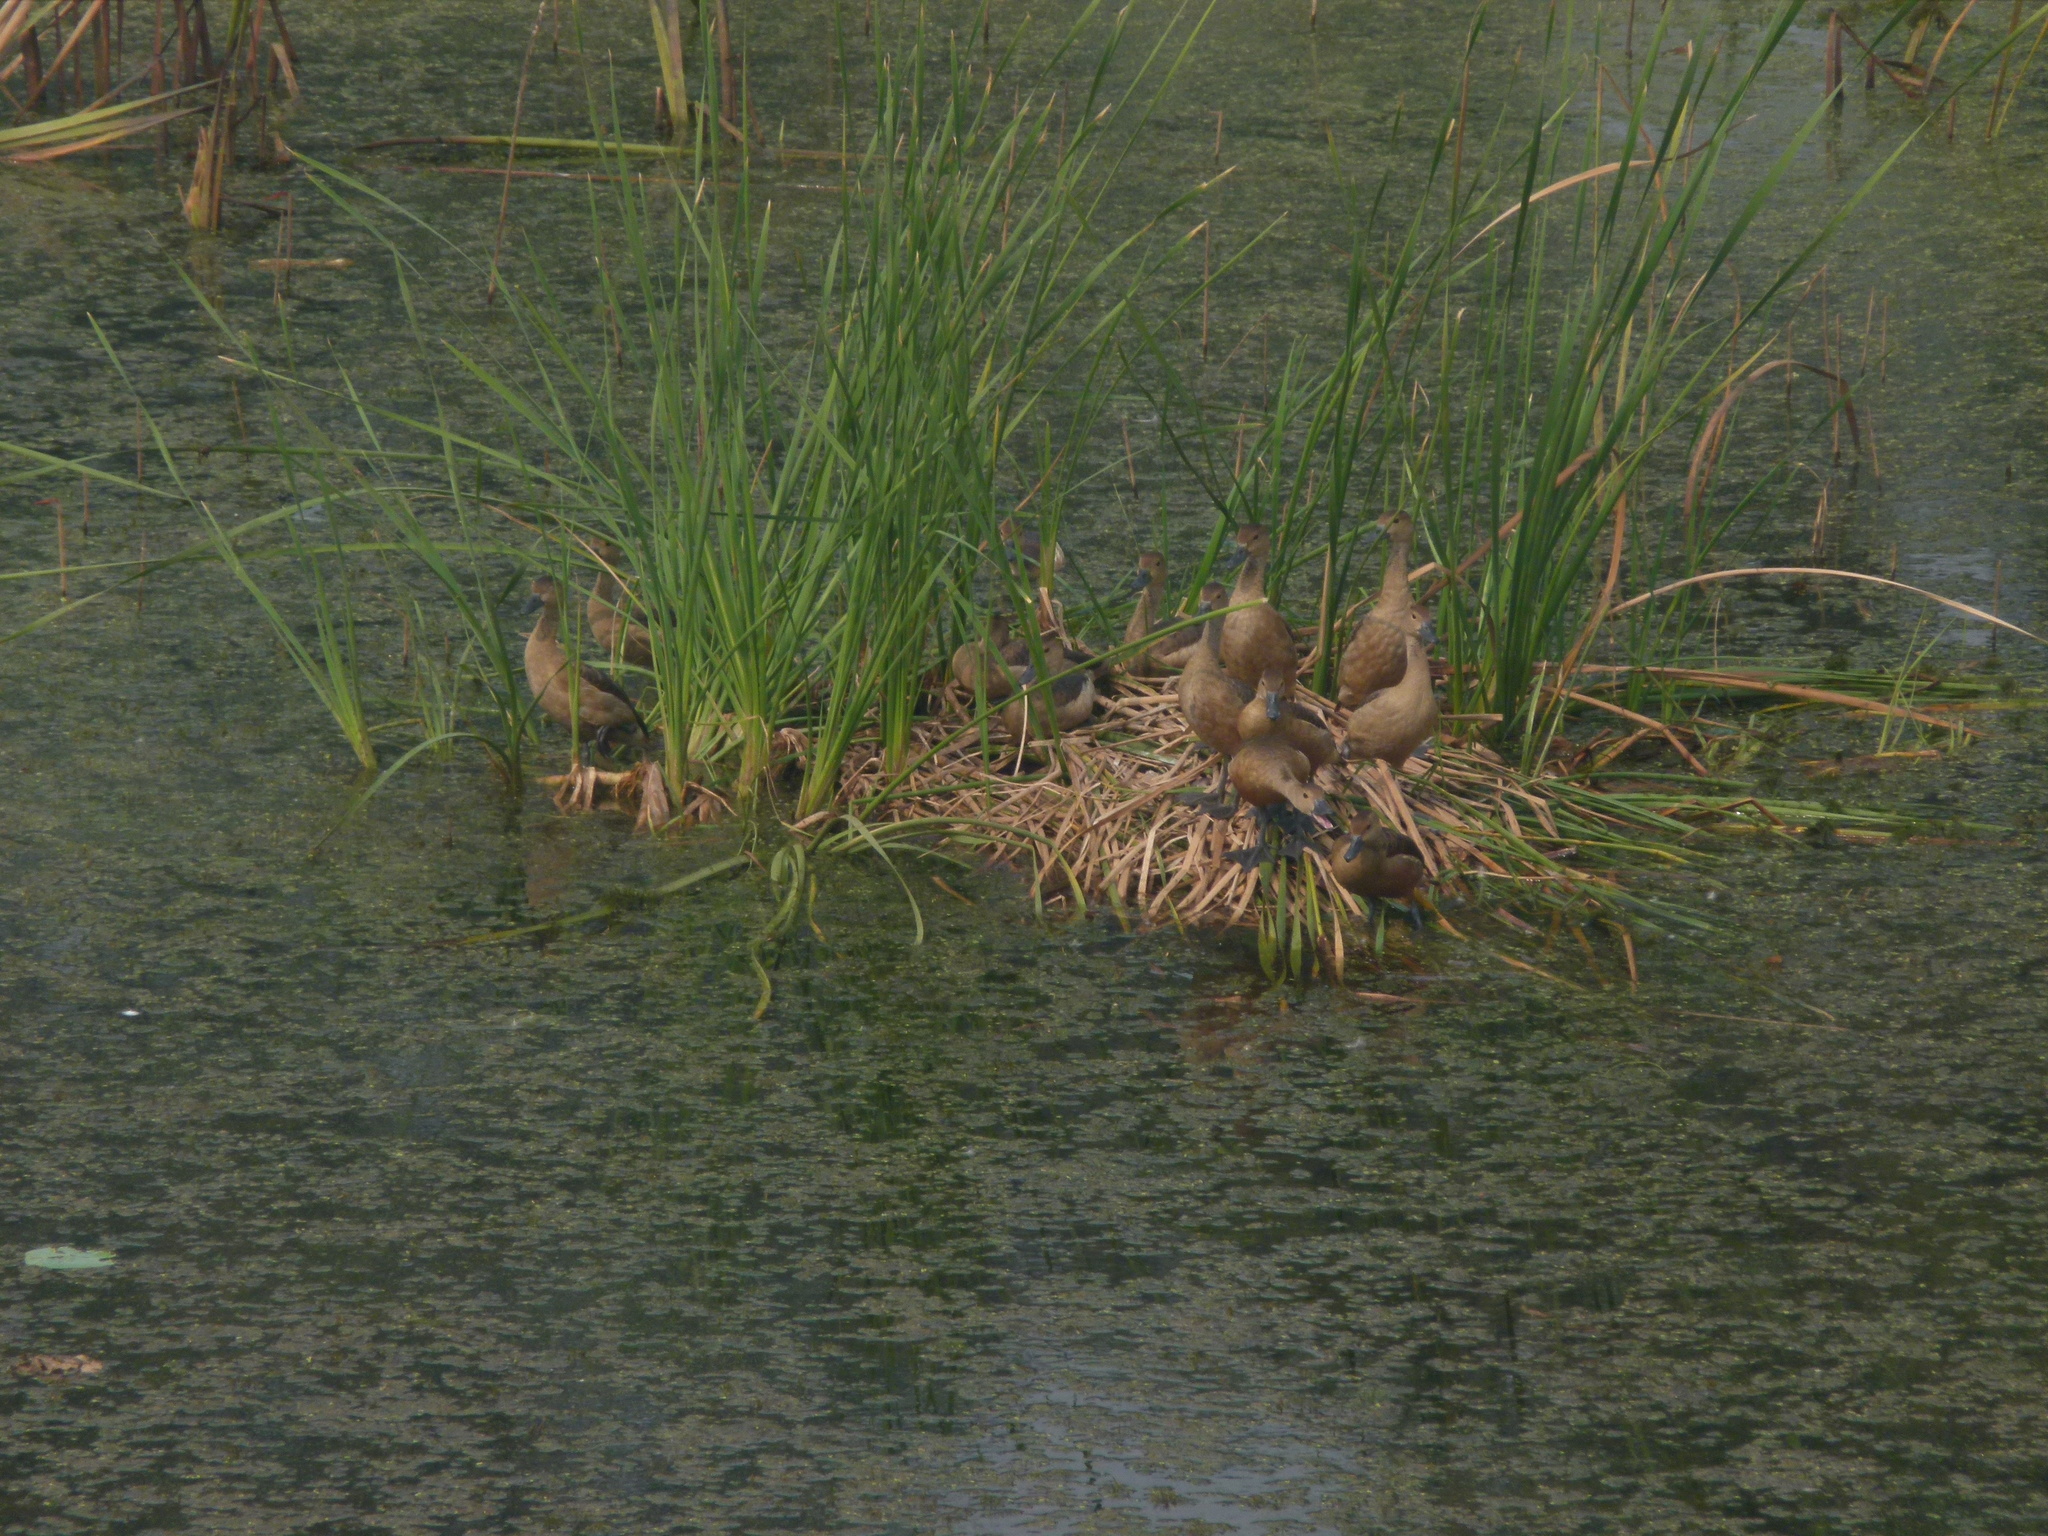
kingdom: Animalia
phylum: Chordata
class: Aves
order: Anseriformes
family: Anatidae
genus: Dendrocygna
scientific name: Dendrocygna javanica
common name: Lesser whistling-duck
